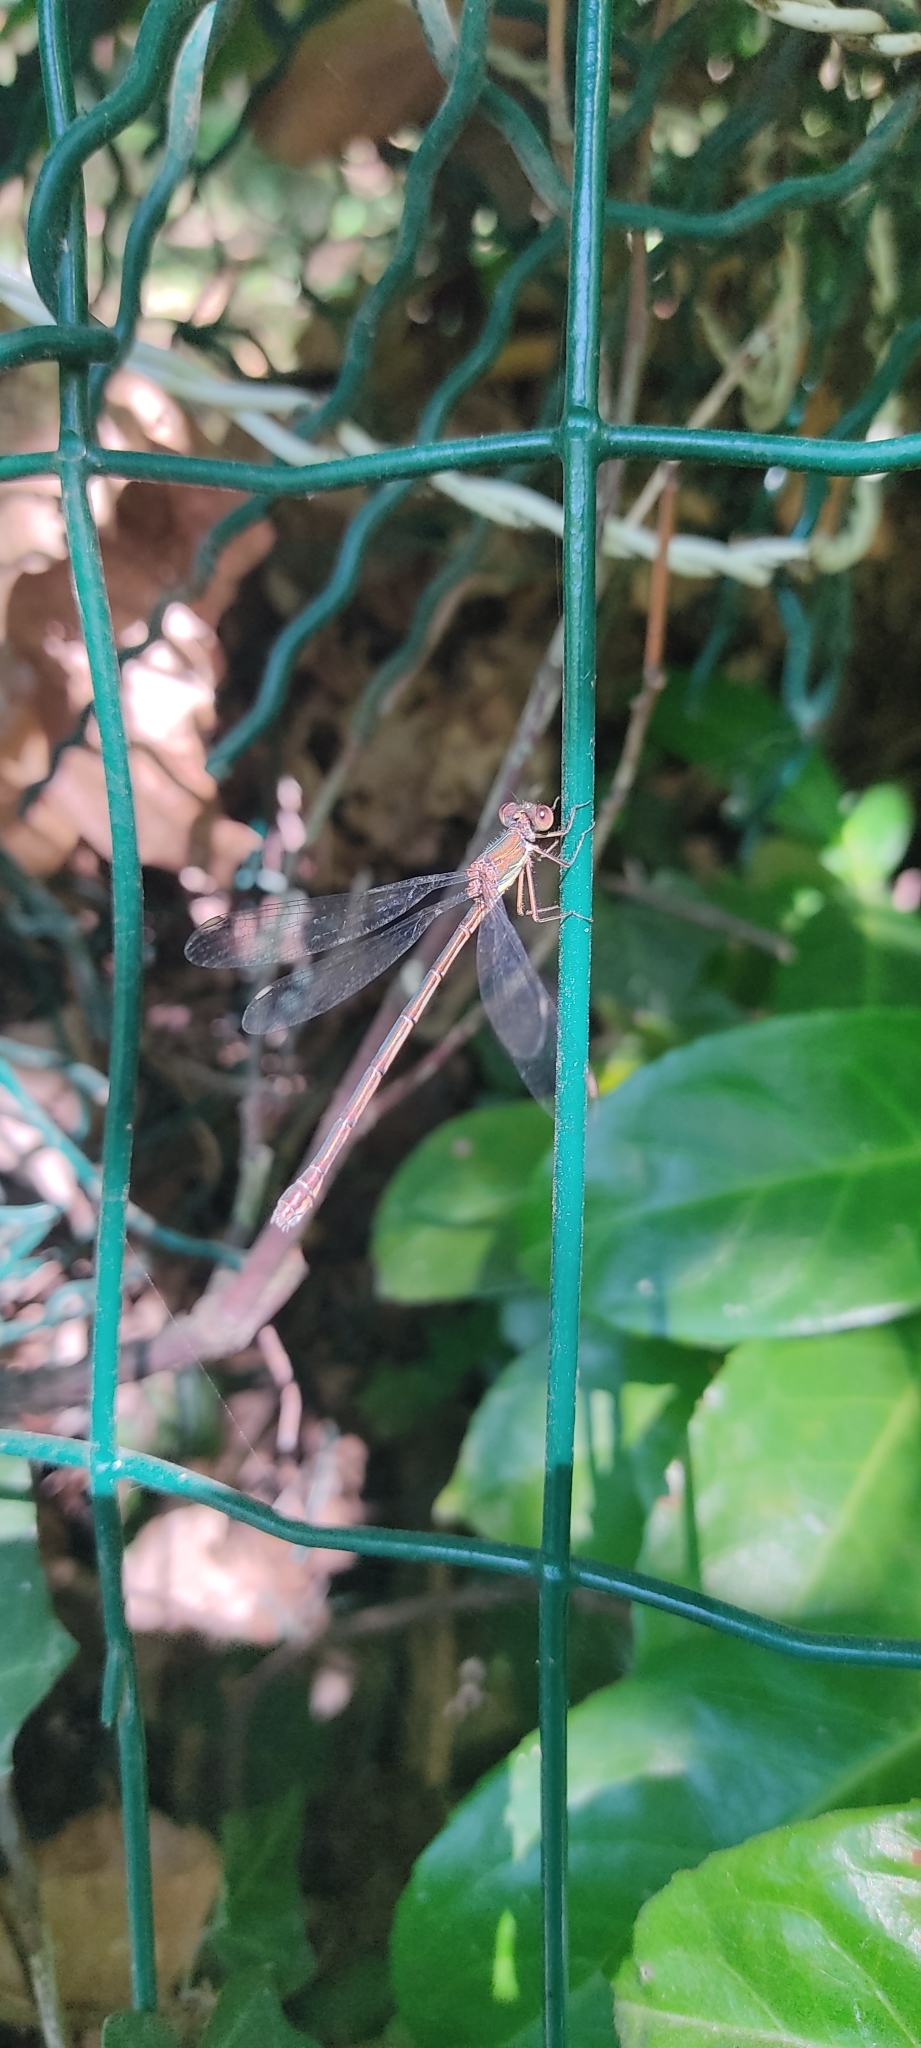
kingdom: Animalia
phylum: Arthropoda
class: Insecta
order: Odonata
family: Lestidae
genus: Chalcolestes
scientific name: Chalcolestes viridis
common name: Green emerald damselfly
